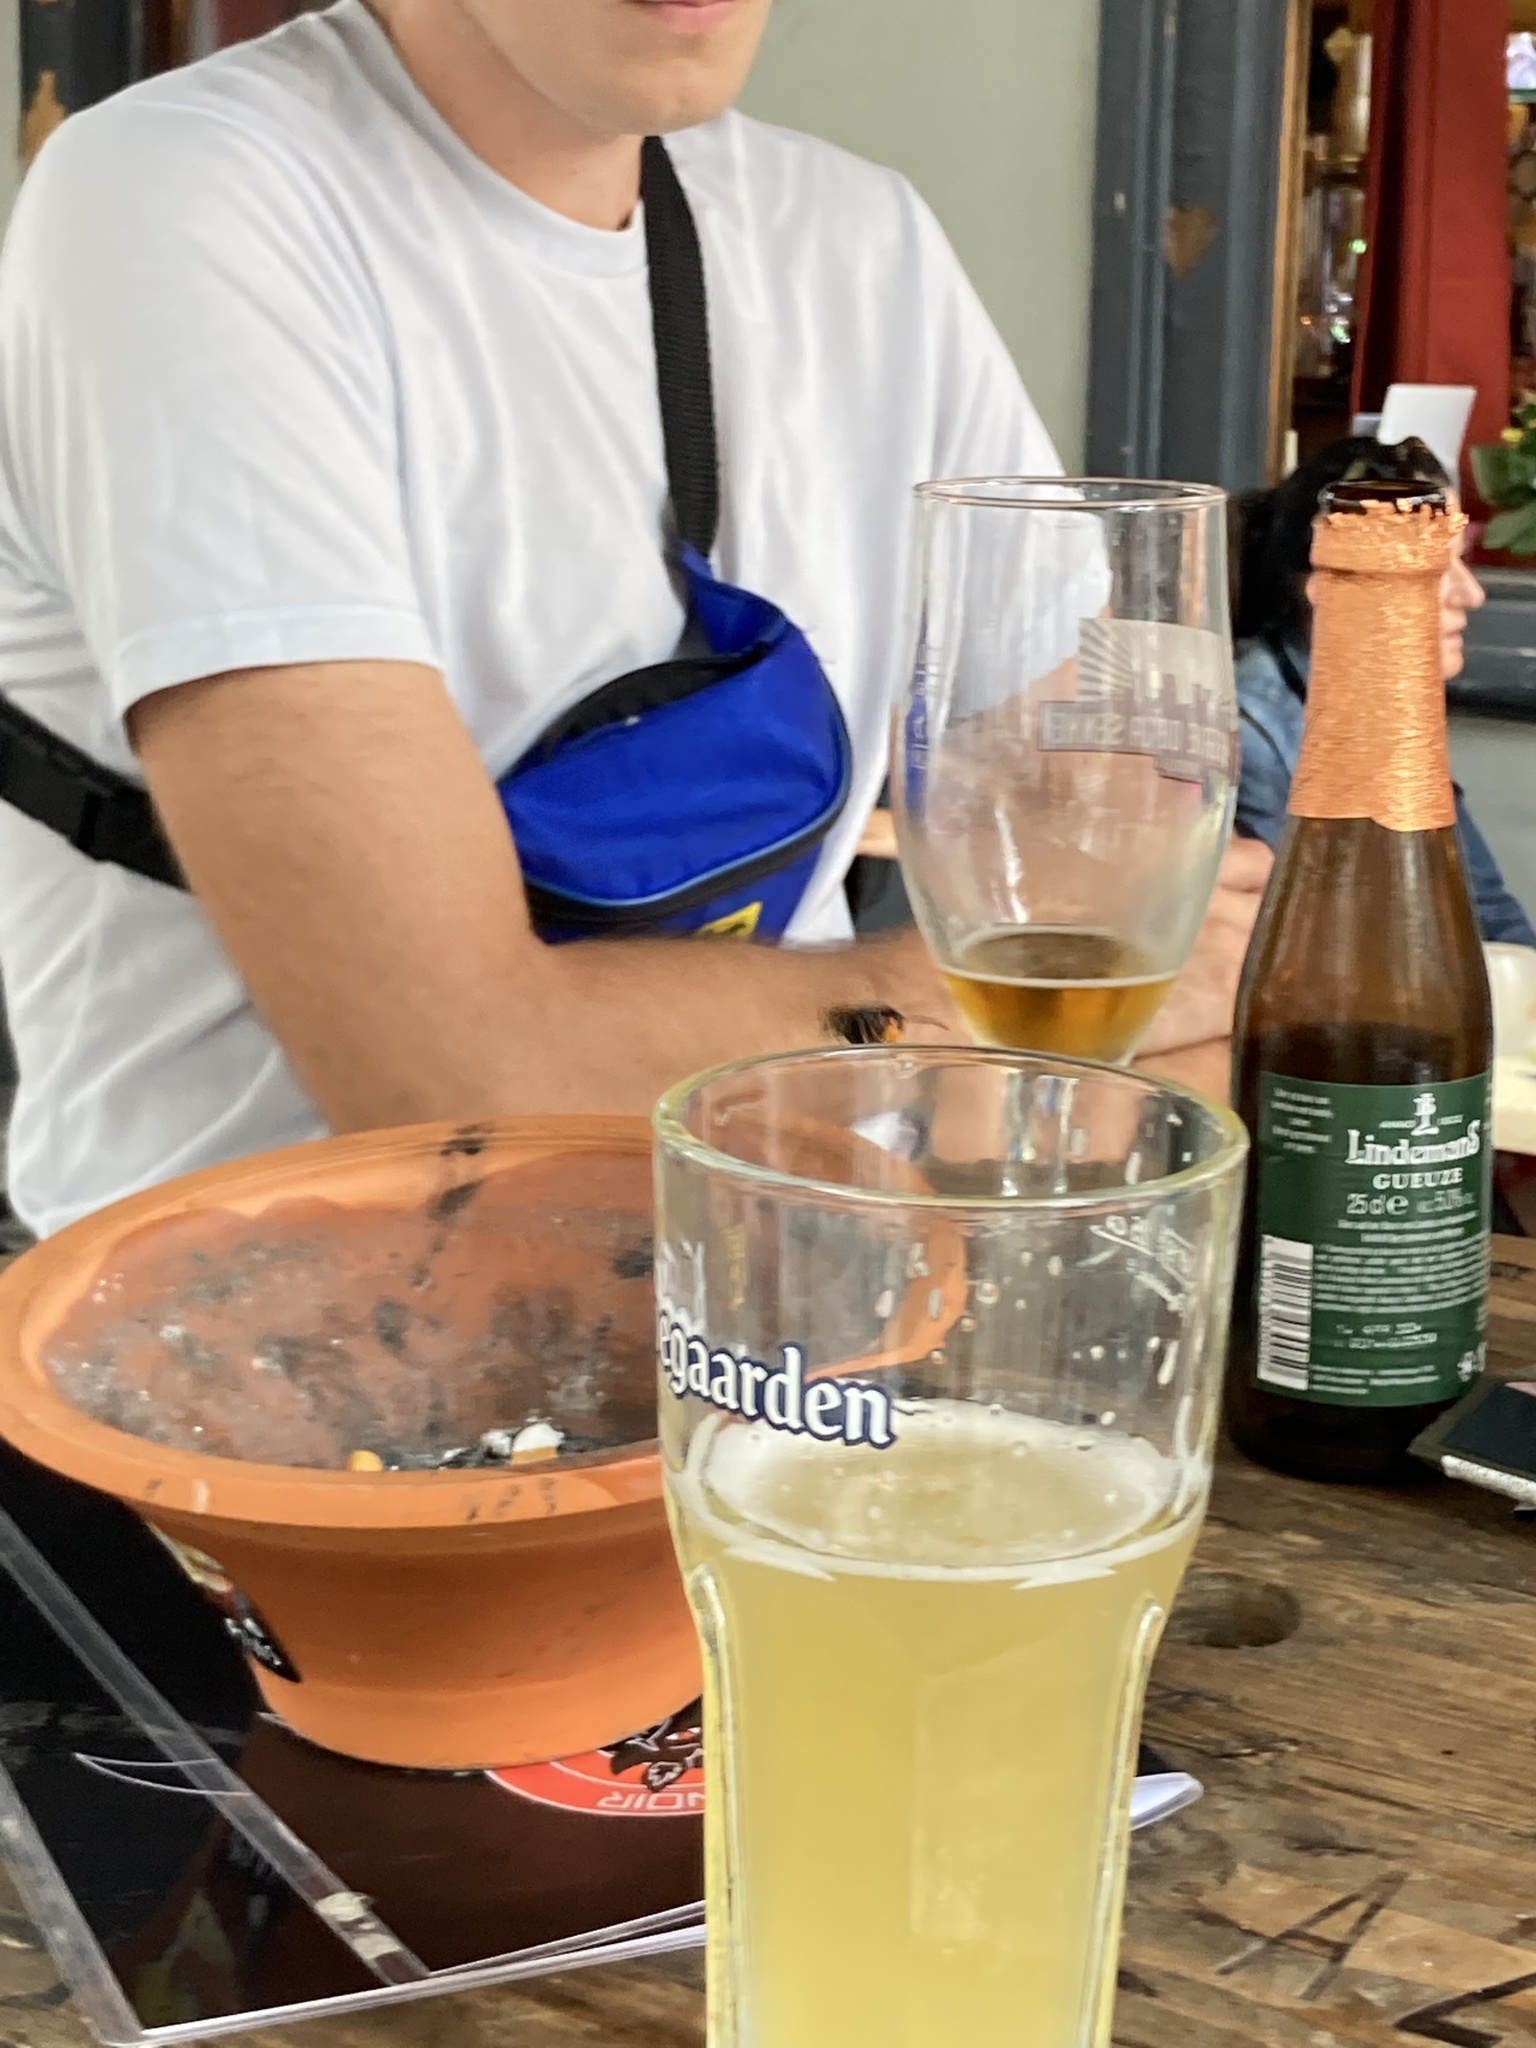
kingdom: Animalia
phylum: Arthropoda
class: Insecta
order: Hymenoptera
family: Vespidae
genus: Vespa
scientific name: Vespa velutina
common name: Asian hornet
